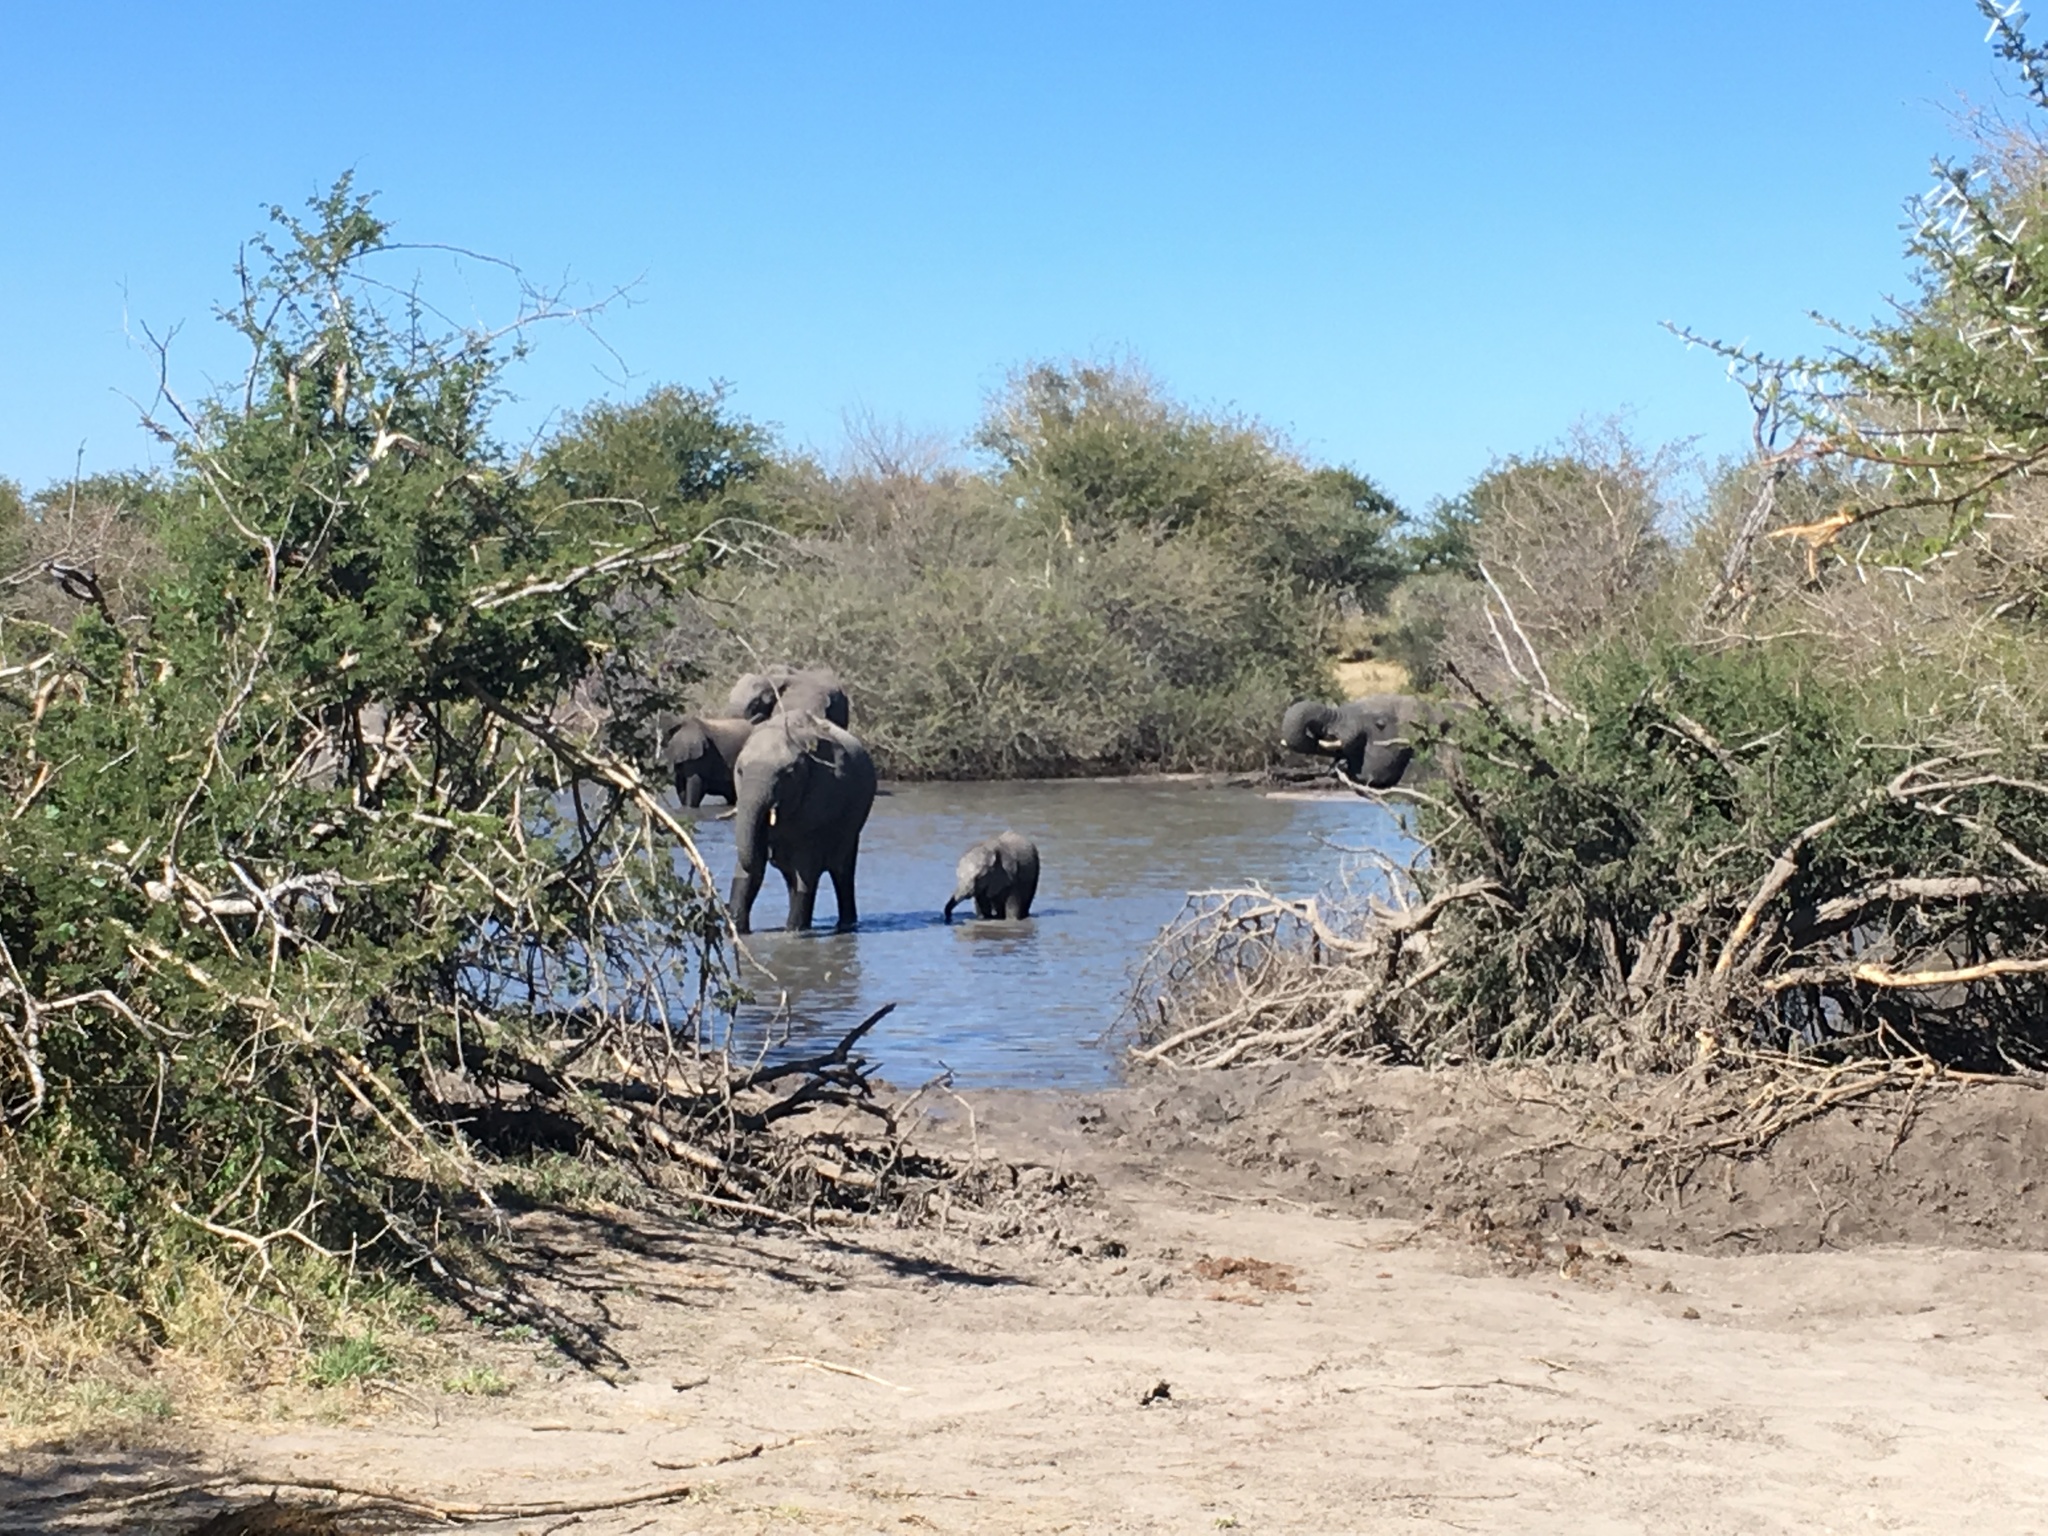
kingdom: Animalia
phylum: Chordata
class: Mammalia
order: Proboscidea
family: Elephantidae
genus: Loxodonta
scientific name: Loxodonta africana
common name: African elephant
